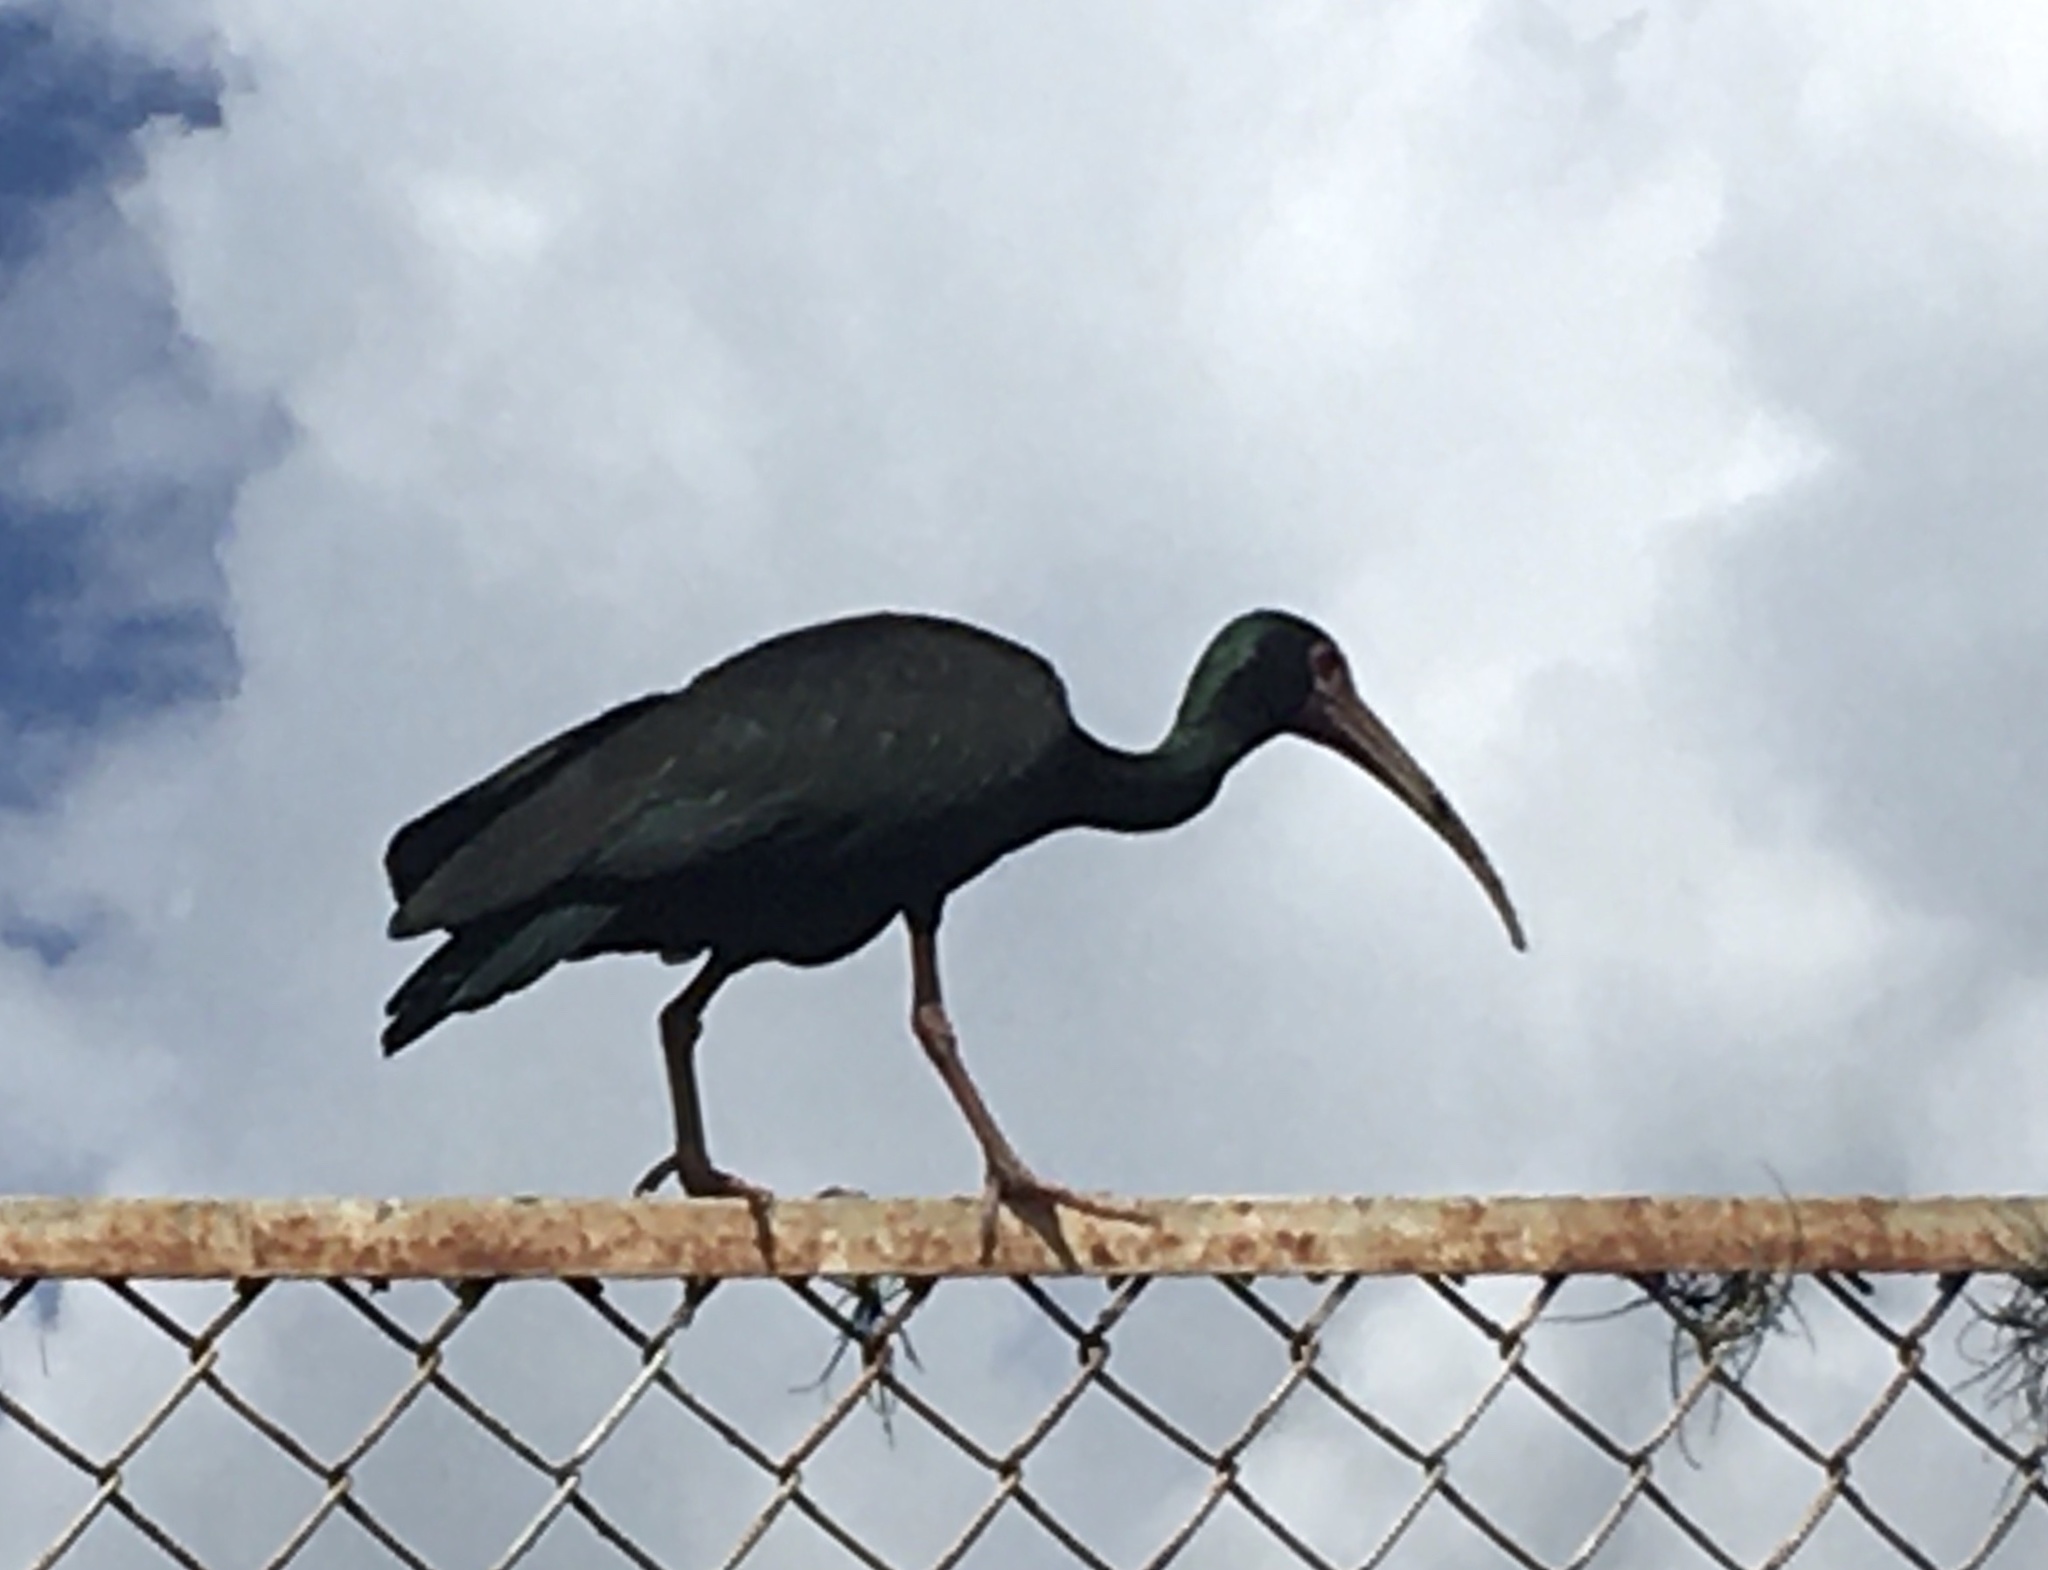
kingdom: Animalia
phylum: Chordata
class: Aves
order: Pelecaniformes
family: Threskiornithidae
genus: Phimosus
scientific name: Phimosus infuscatus
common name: Bare-faced ibis
